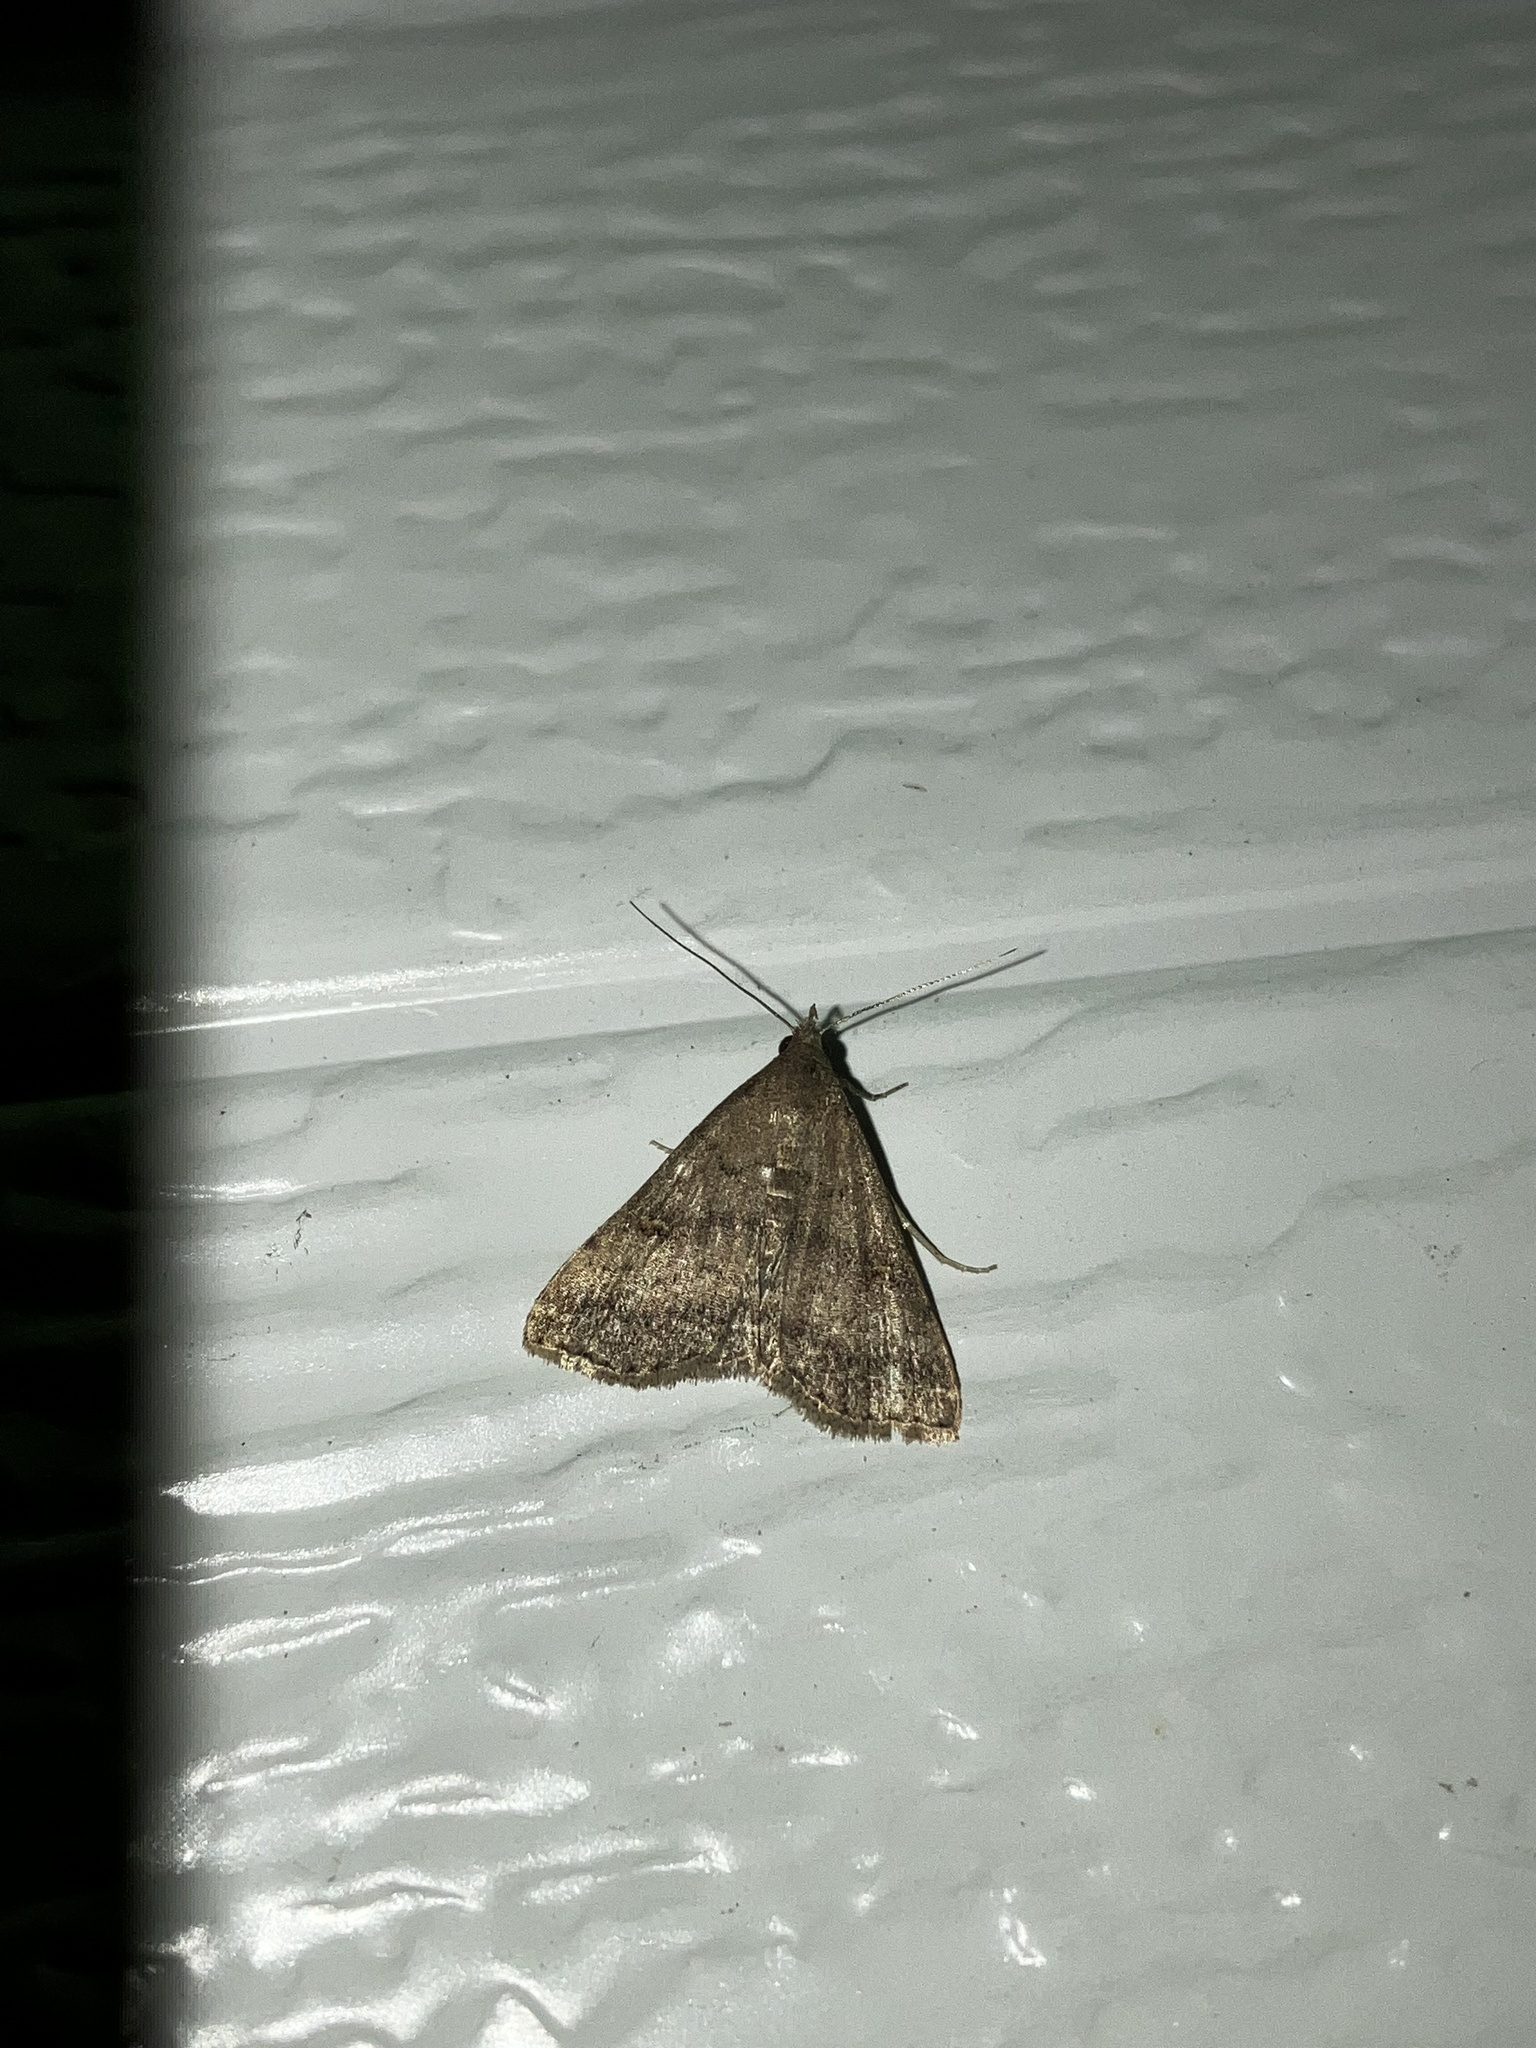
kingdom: Animalia
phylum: Arthropoda
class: Insecta
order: Lepidoptera
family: Erebidae
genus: Tetanolita
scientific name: Tetanolita floridana
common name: Florida tetanolita moth
